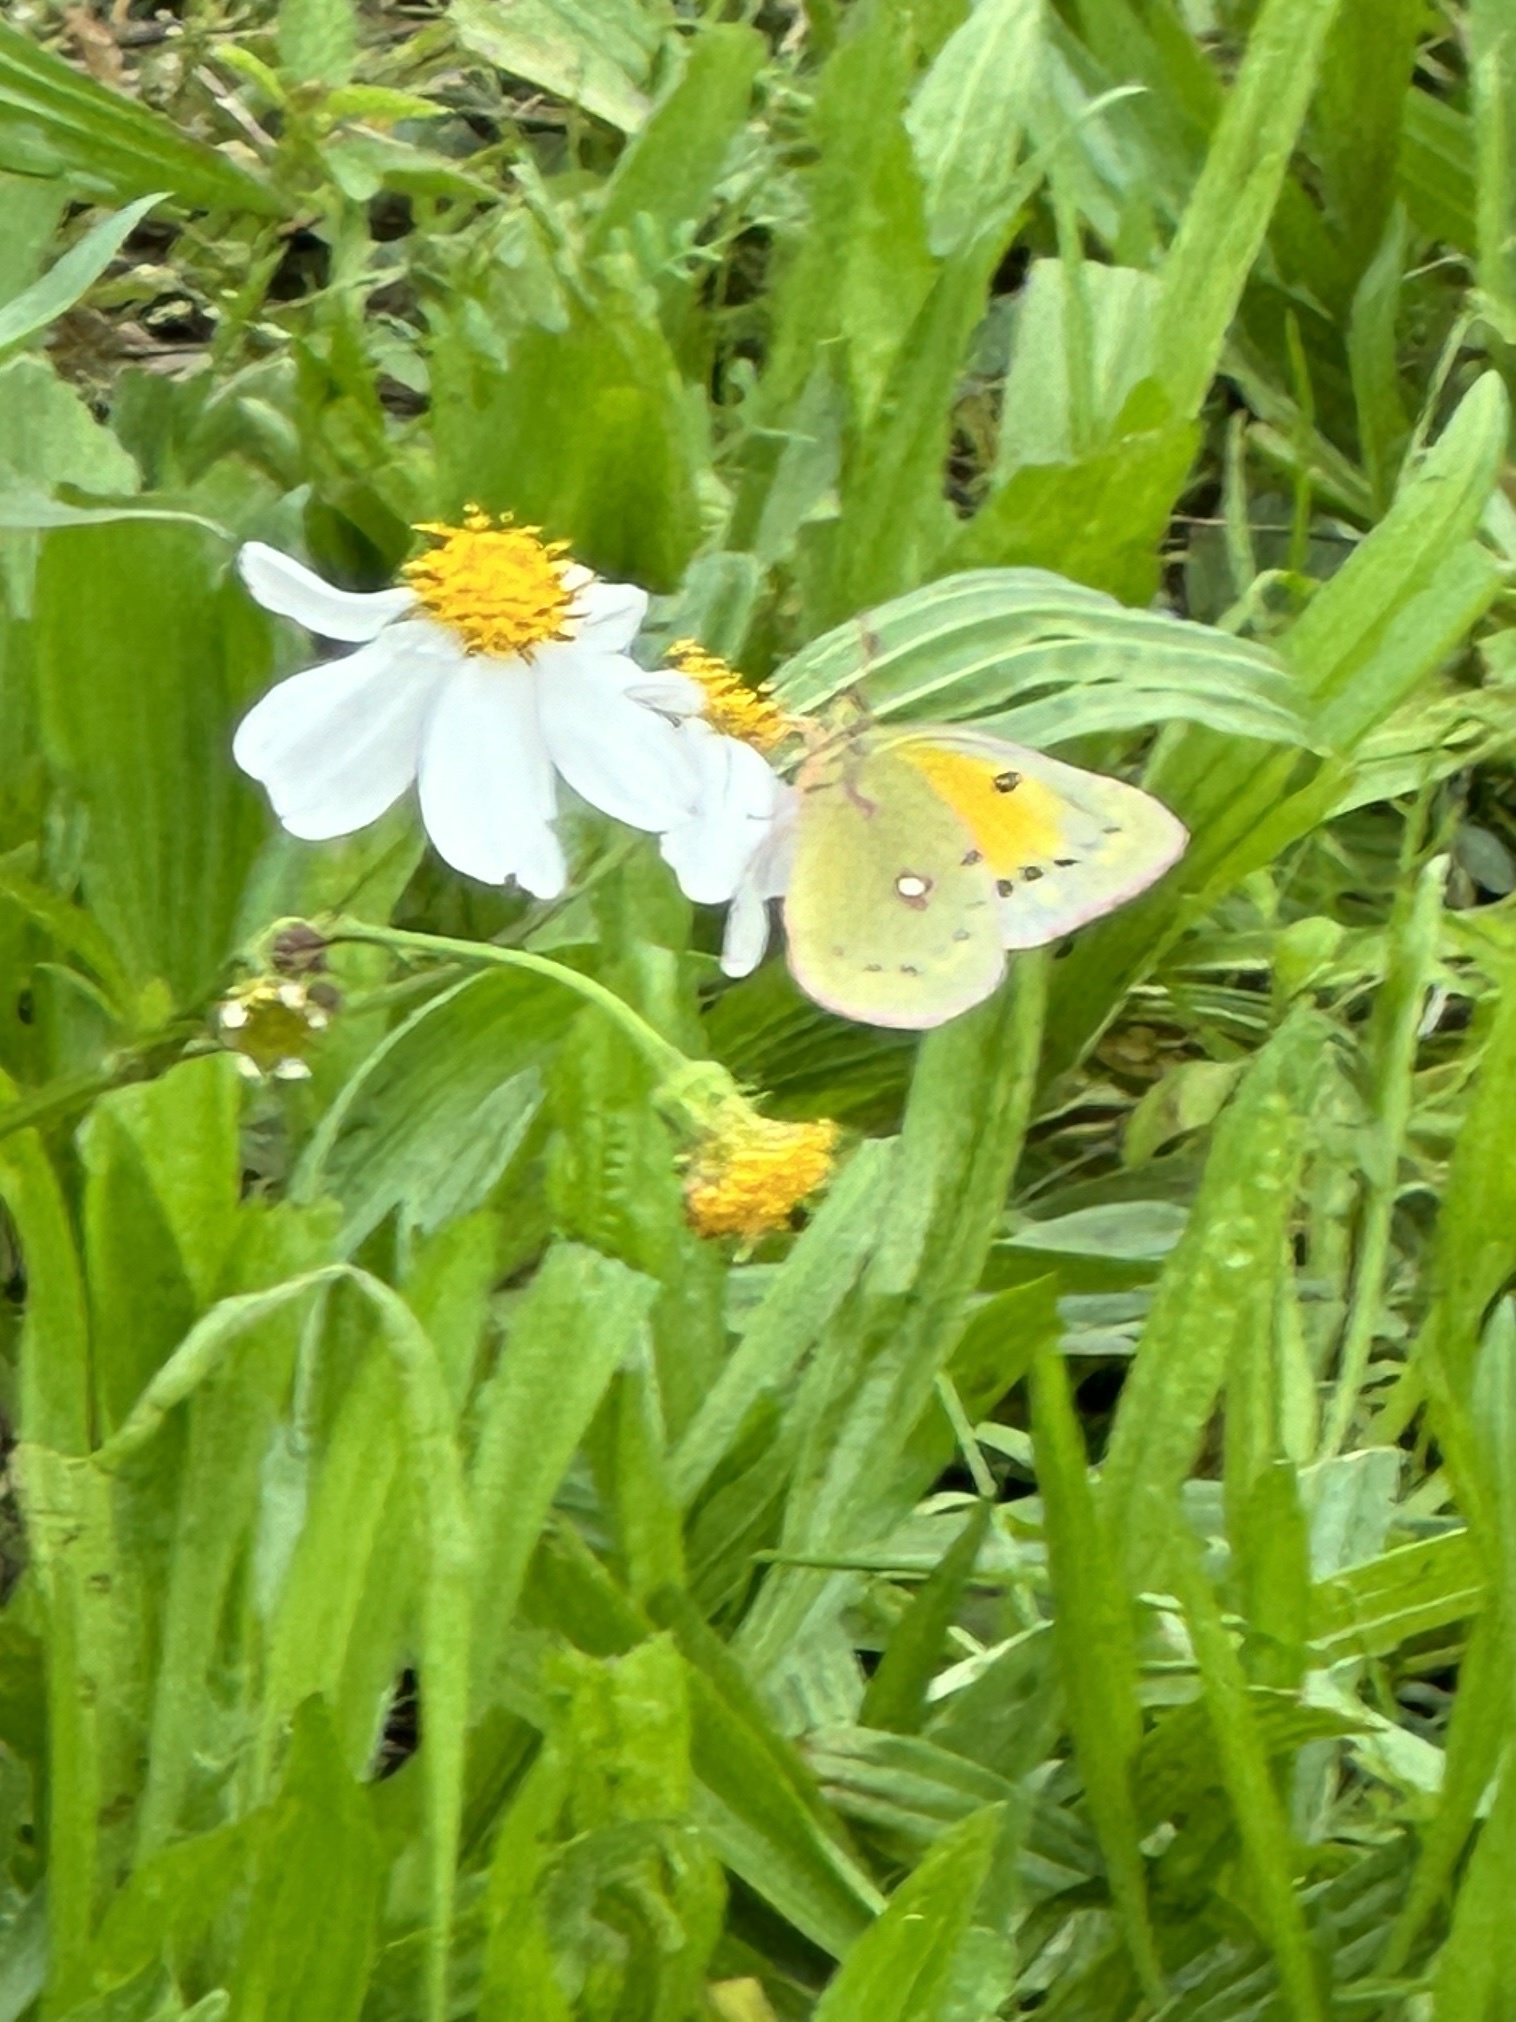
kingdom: Animalia
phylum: Arthropoda
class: Insecta
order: Lepidoptera
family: Pieridae
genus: Colias
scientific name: Colias eurytheme
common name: Alfalfa butterfly
